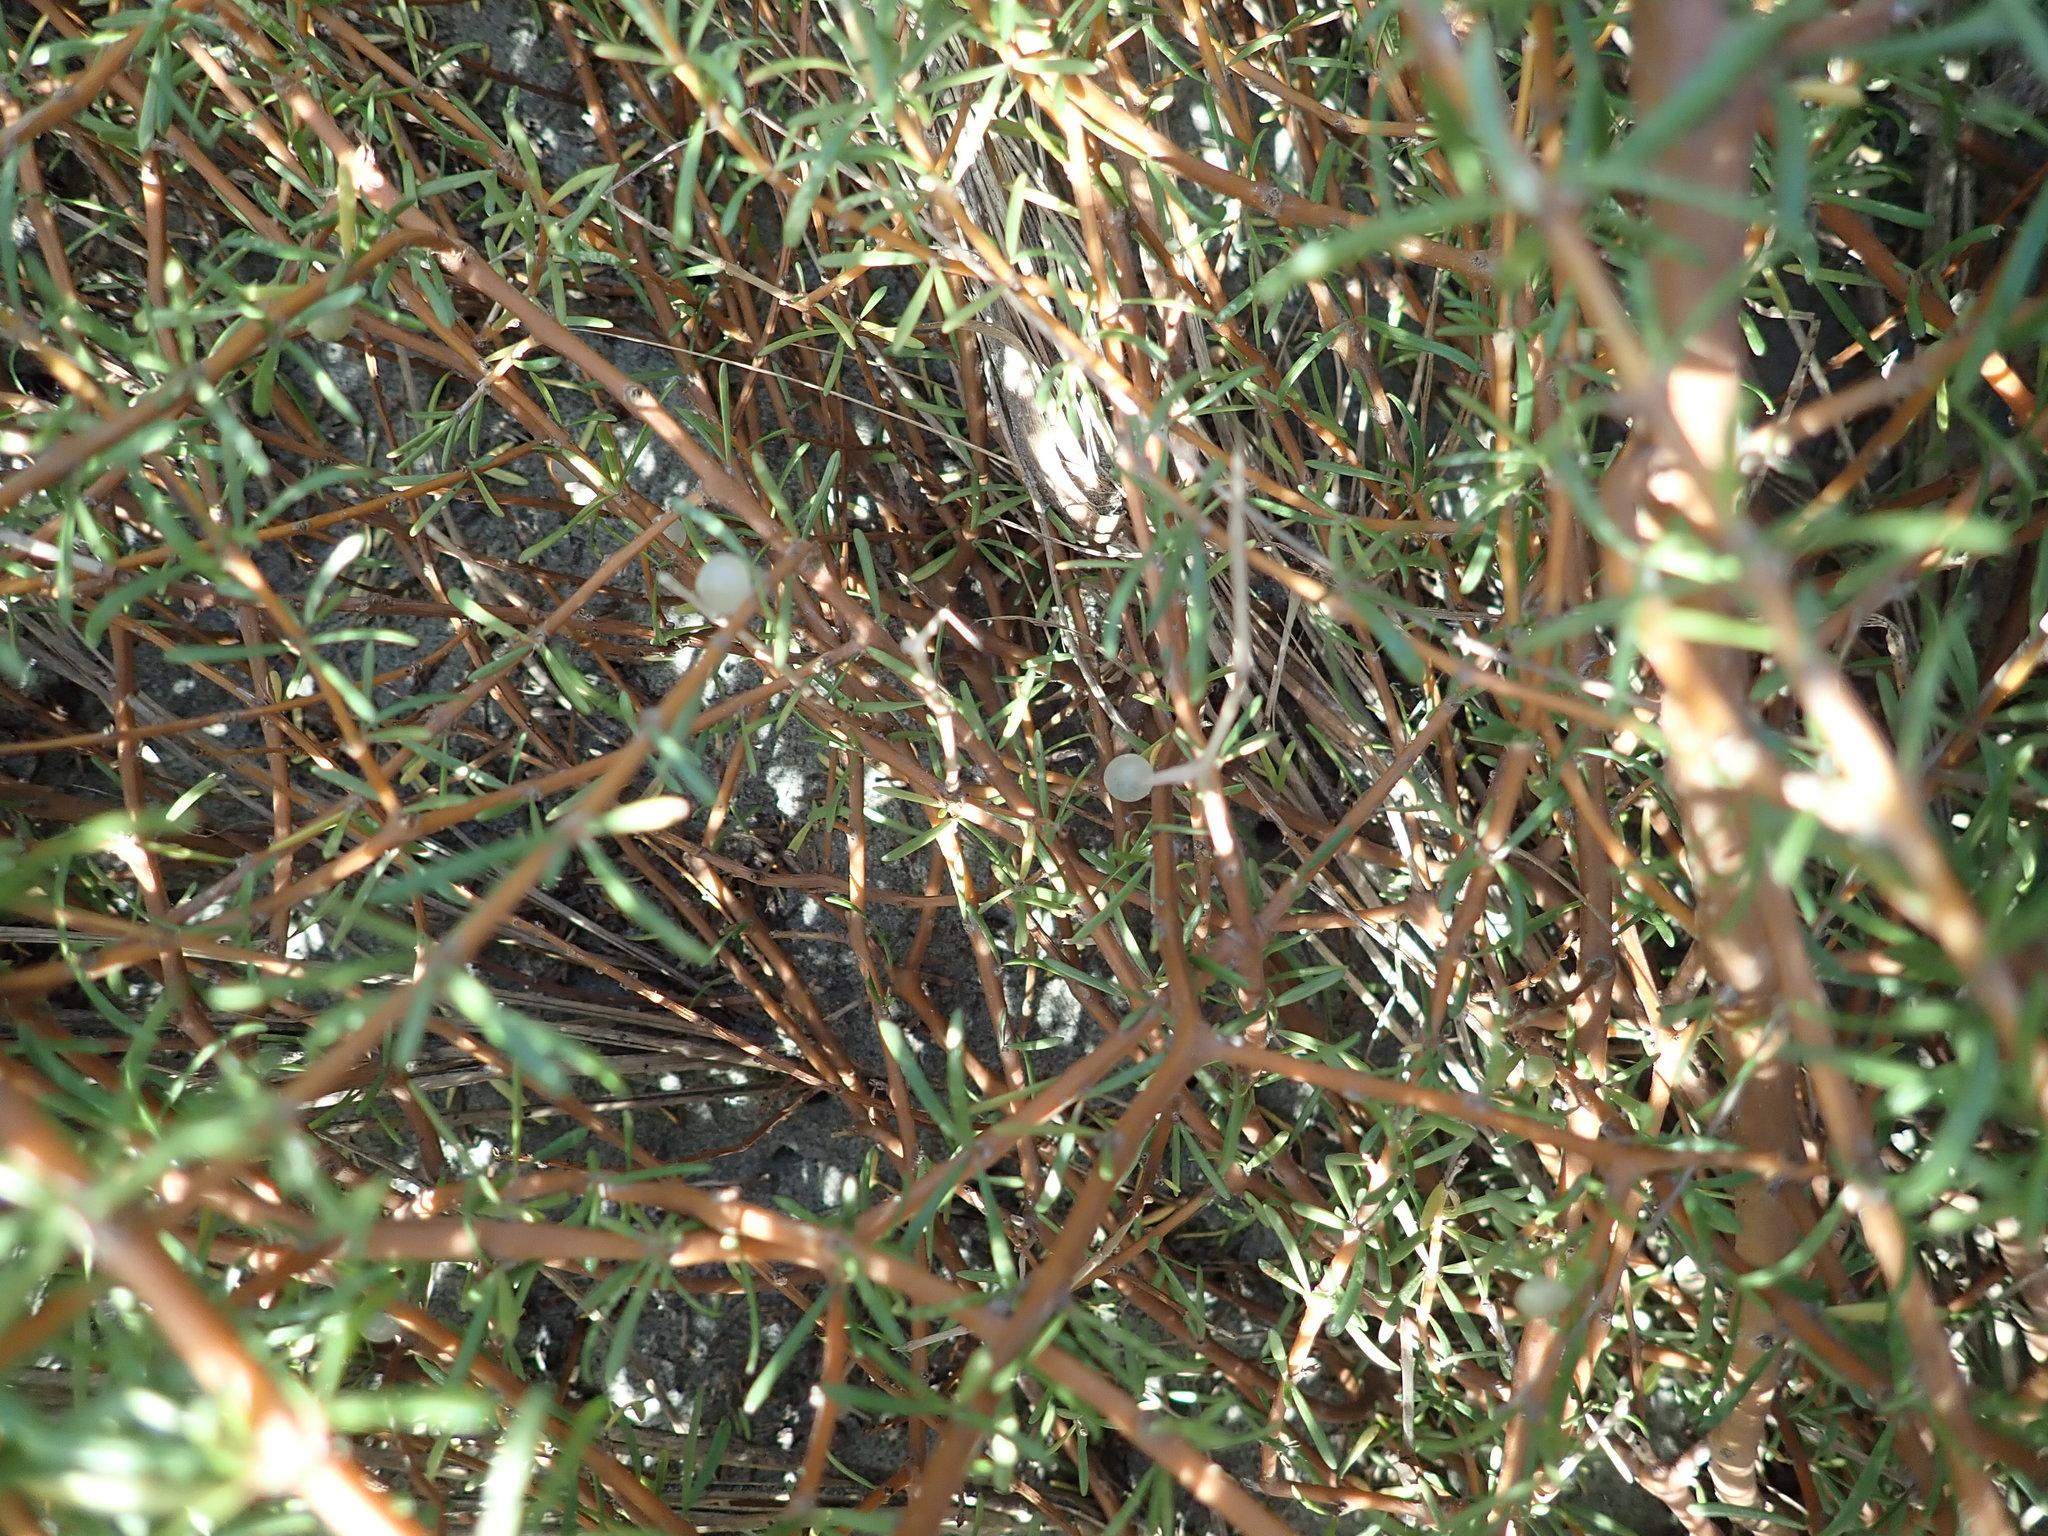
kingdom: Plantae
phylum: Tracheophyta
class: Magnoliopsida
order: Gentianales
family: Rubiaceae
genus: Coprosma
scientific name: Coprosma acerosa
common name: Sand coprosma
